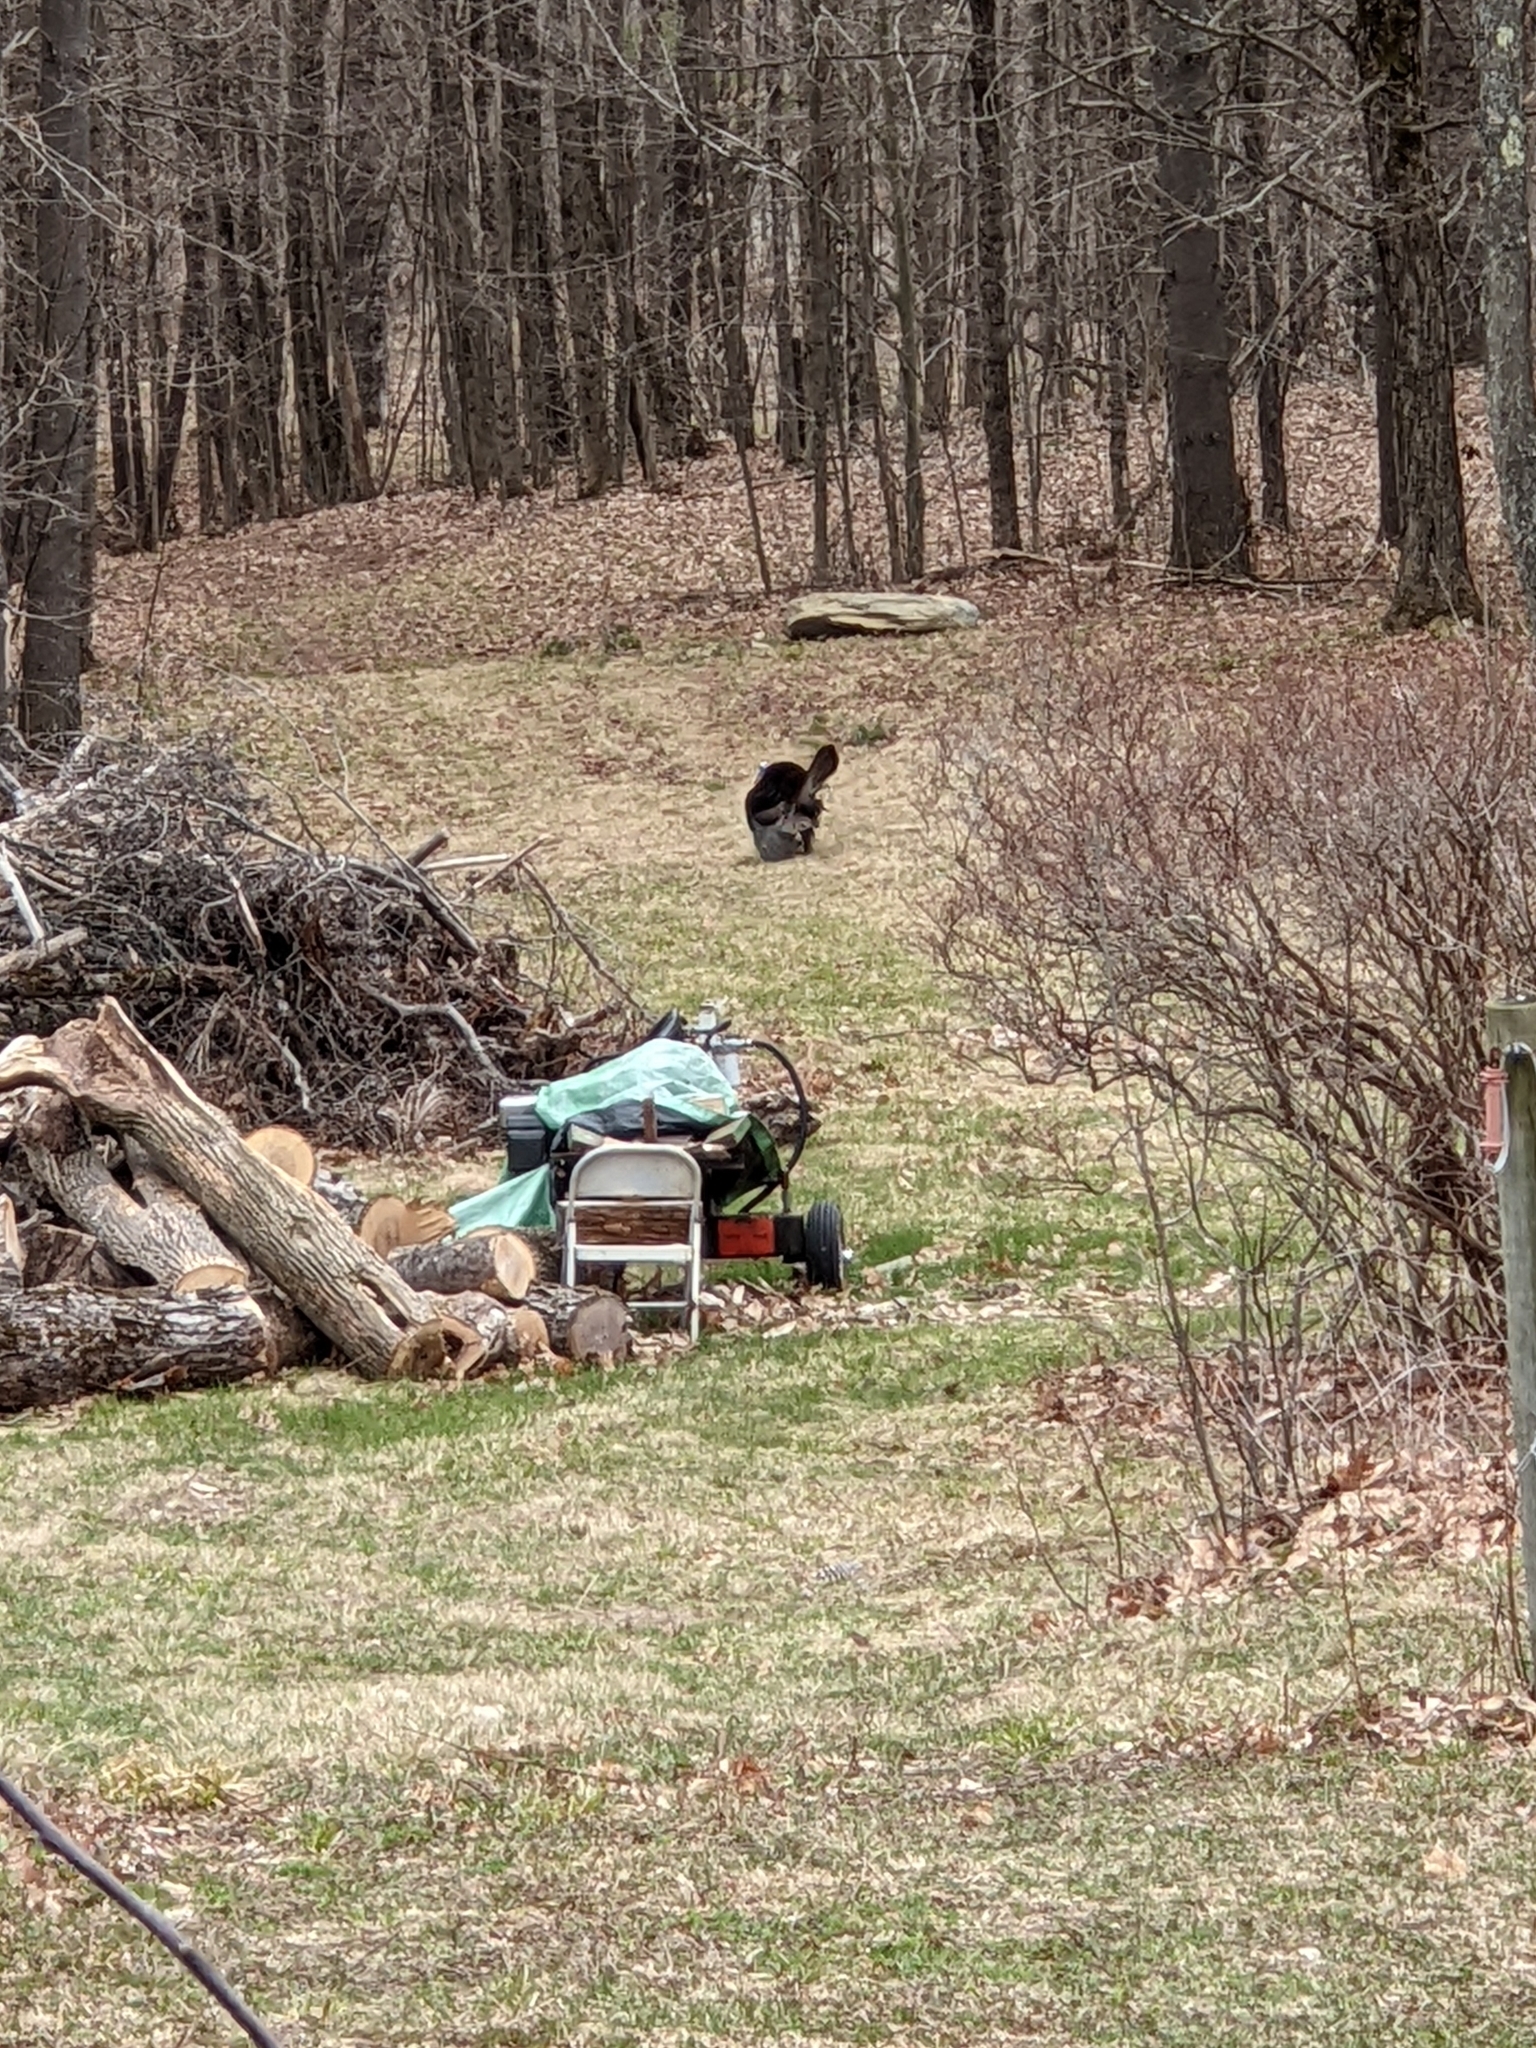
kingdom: Animalia
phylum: Chordata
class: Aves
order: Galliformes
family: Phasianidae
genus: Meleagris
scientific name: Meleagris gallopavo
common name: Wild turkey
